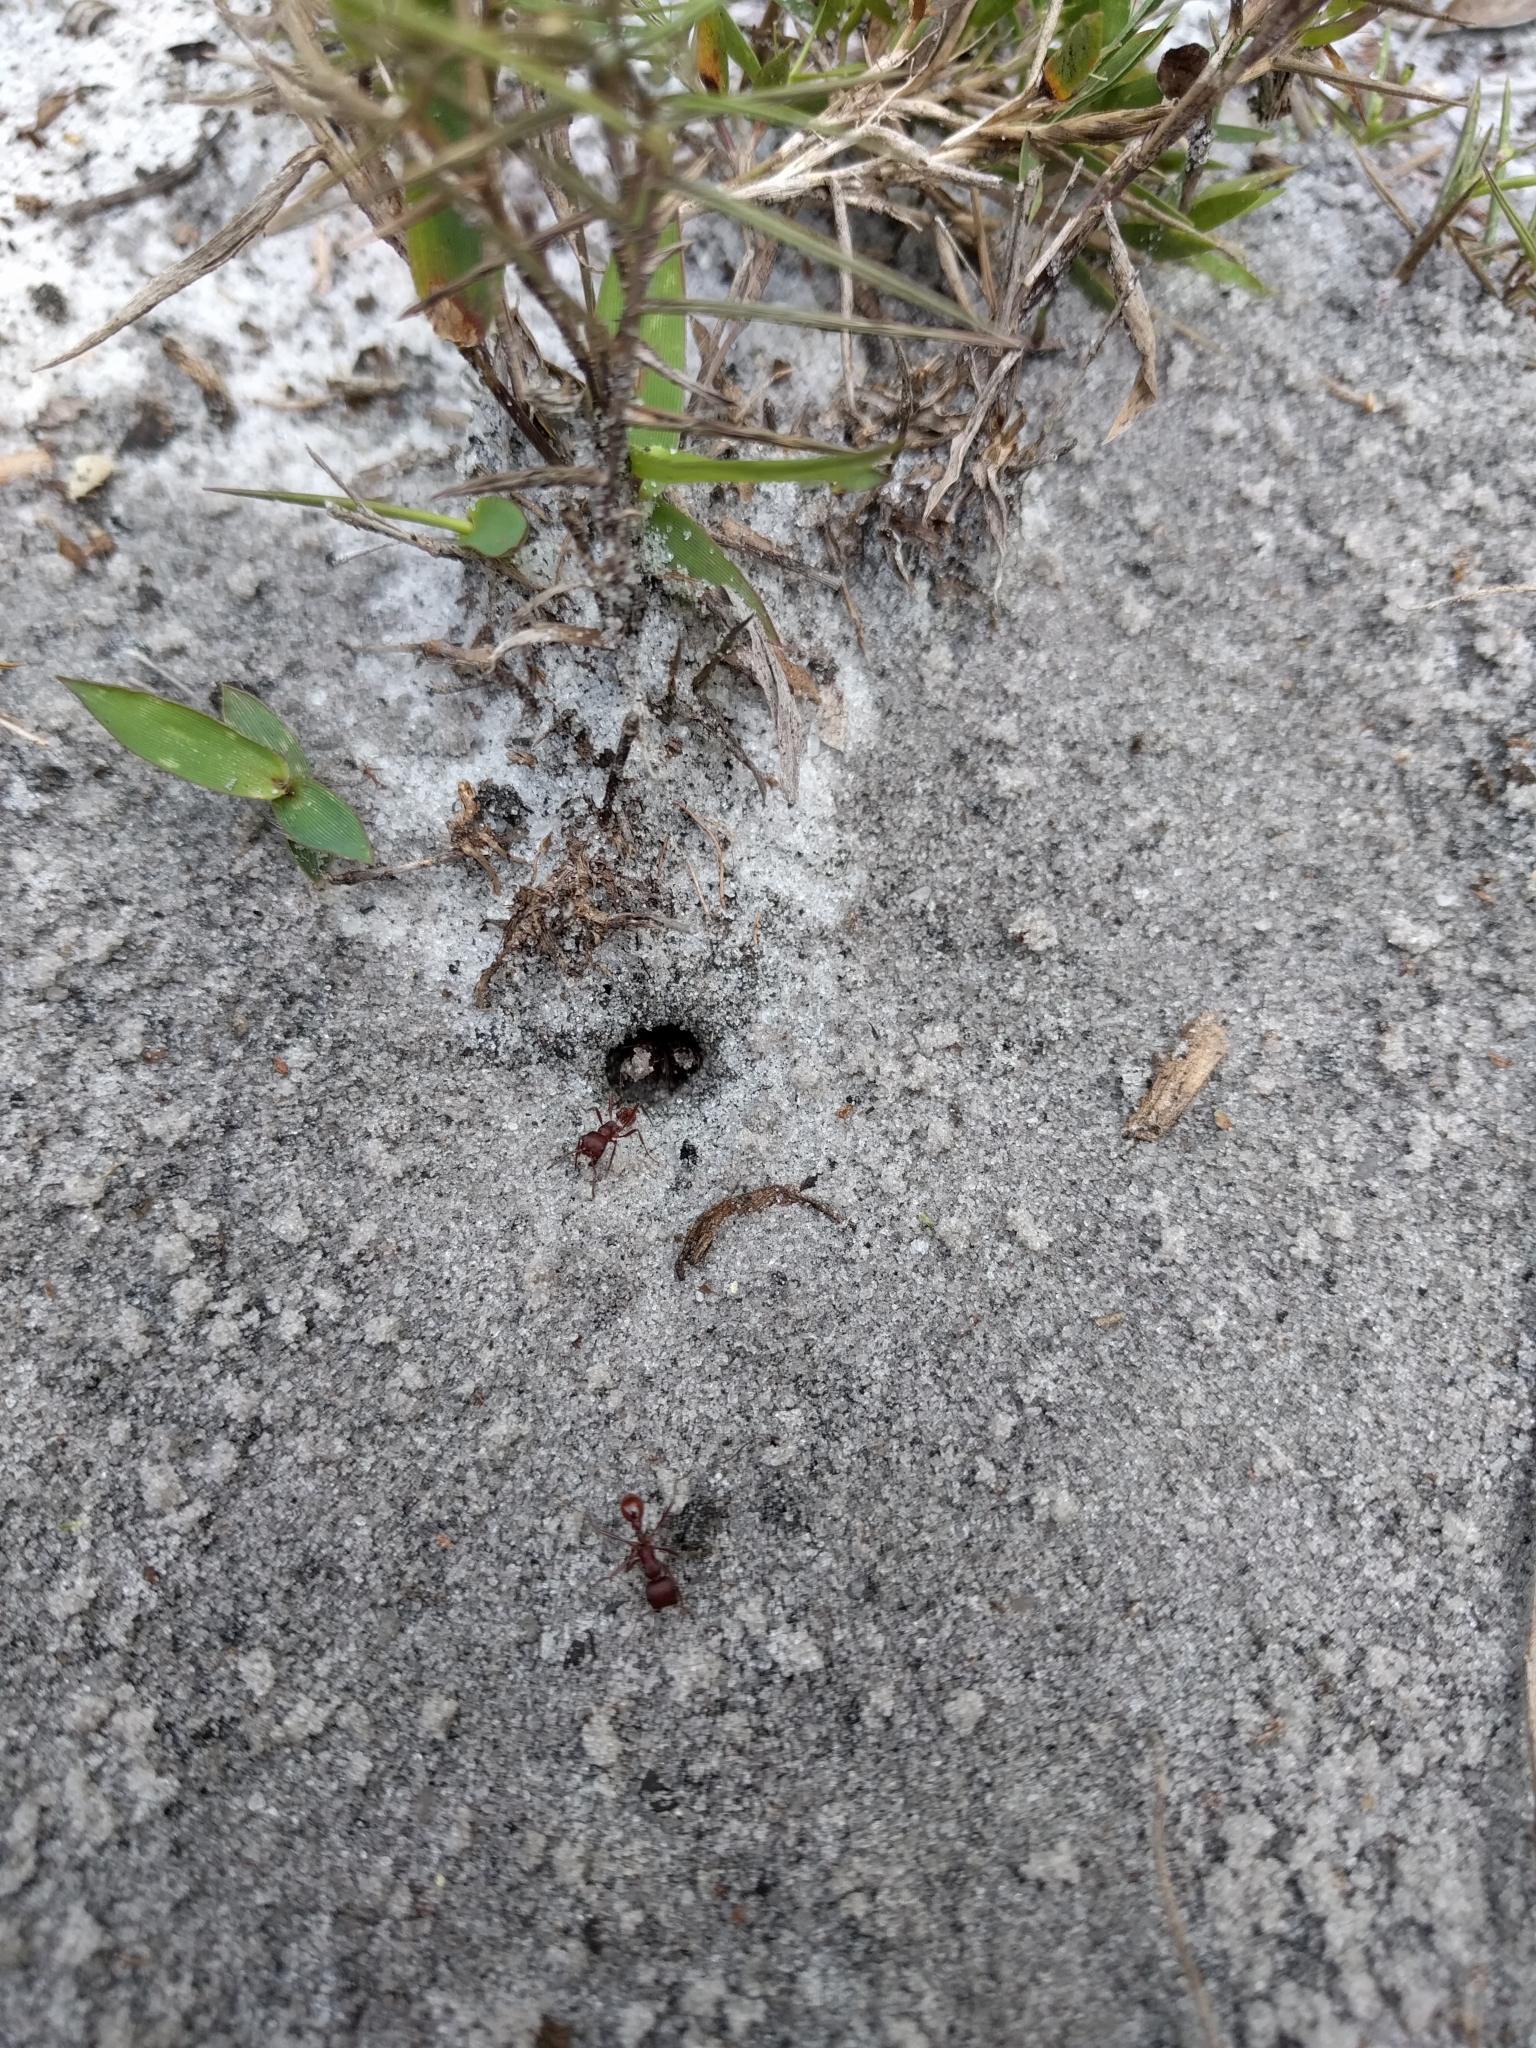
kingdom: Animalia
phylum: Arthropoda
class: Insecta
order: Hymenoptera
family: Formicidae
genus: Pogonomyrmex
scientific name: Pogonomyrmex badius
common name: Florida harvester ant
